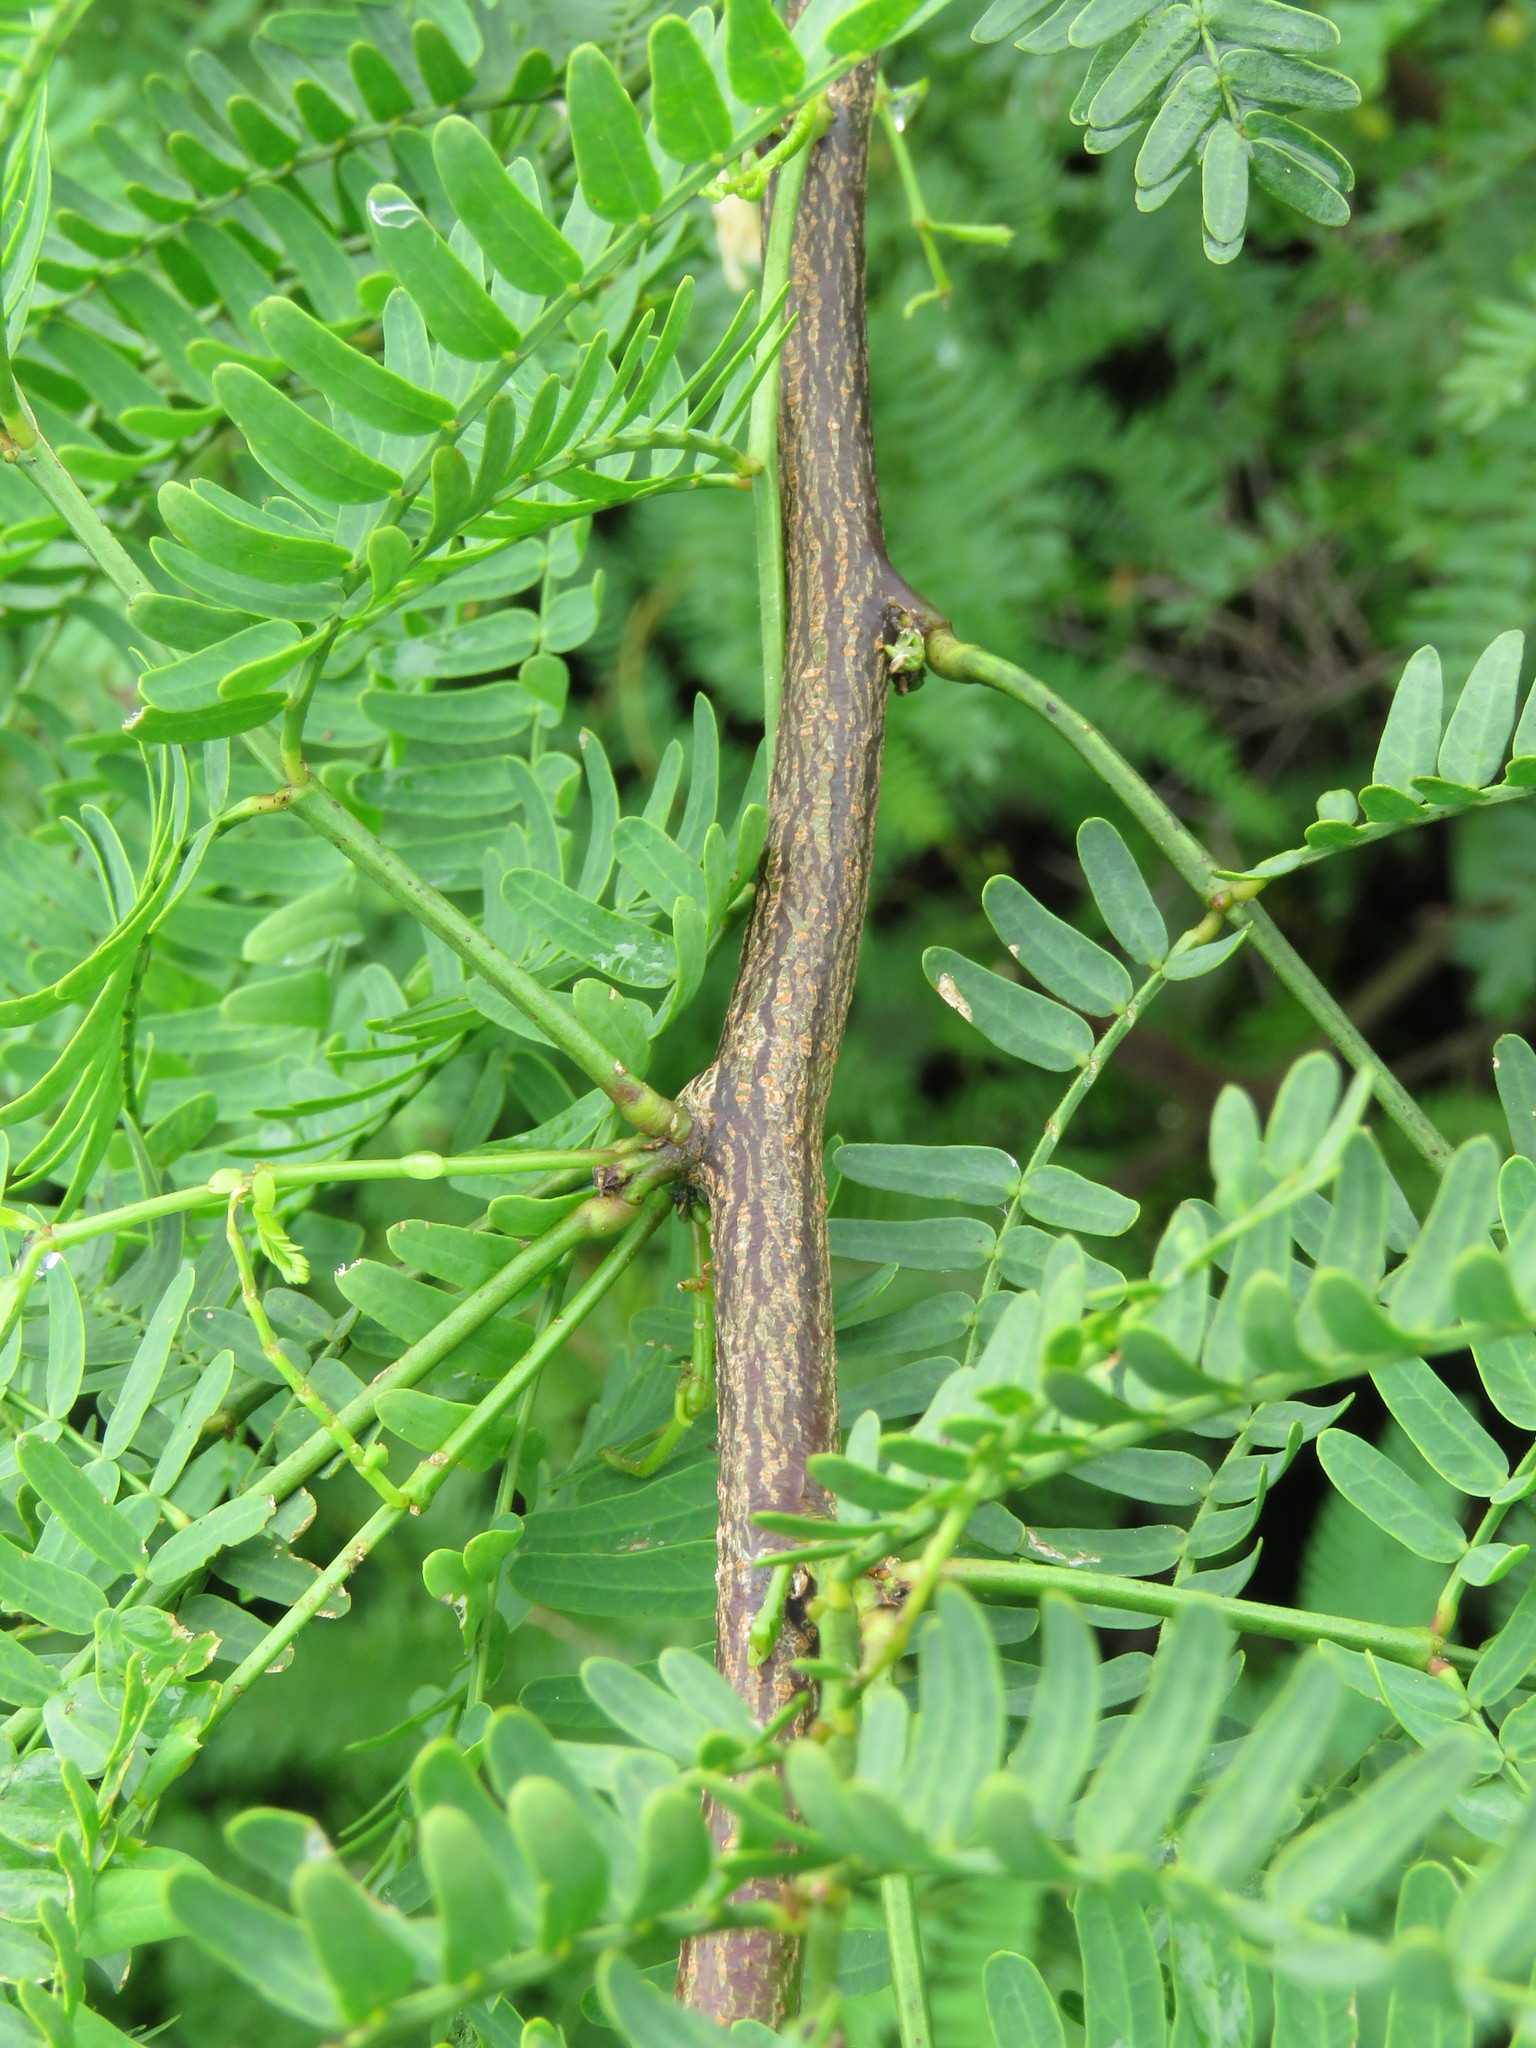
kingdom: Plantae
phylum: Tracheophyta
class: Magnoliopsida
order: Fabales
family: Fabaceae
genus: Prosopis
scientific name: Prosopis juliflora
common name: Mesquite
